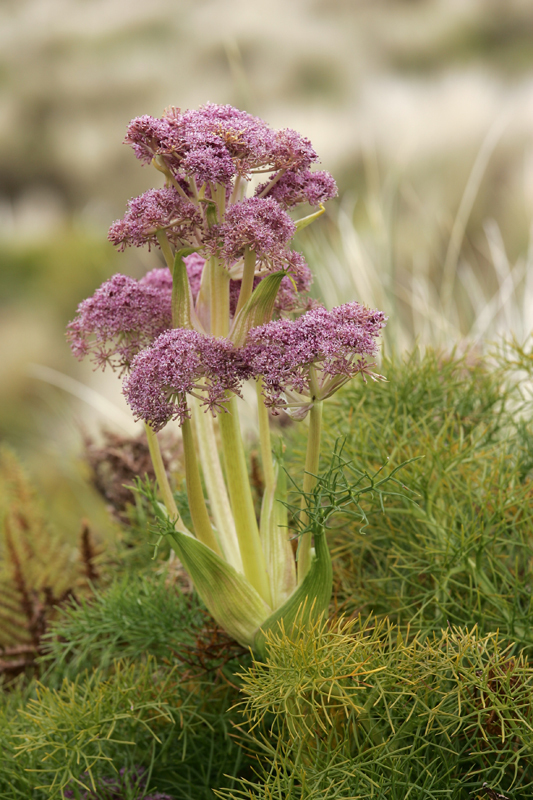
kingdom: Plantae
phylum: Tracheophyta
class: Magnoliopsida
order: Apiales
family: Apiaceae
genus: Anisotome
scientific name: Anisotome antipoda
